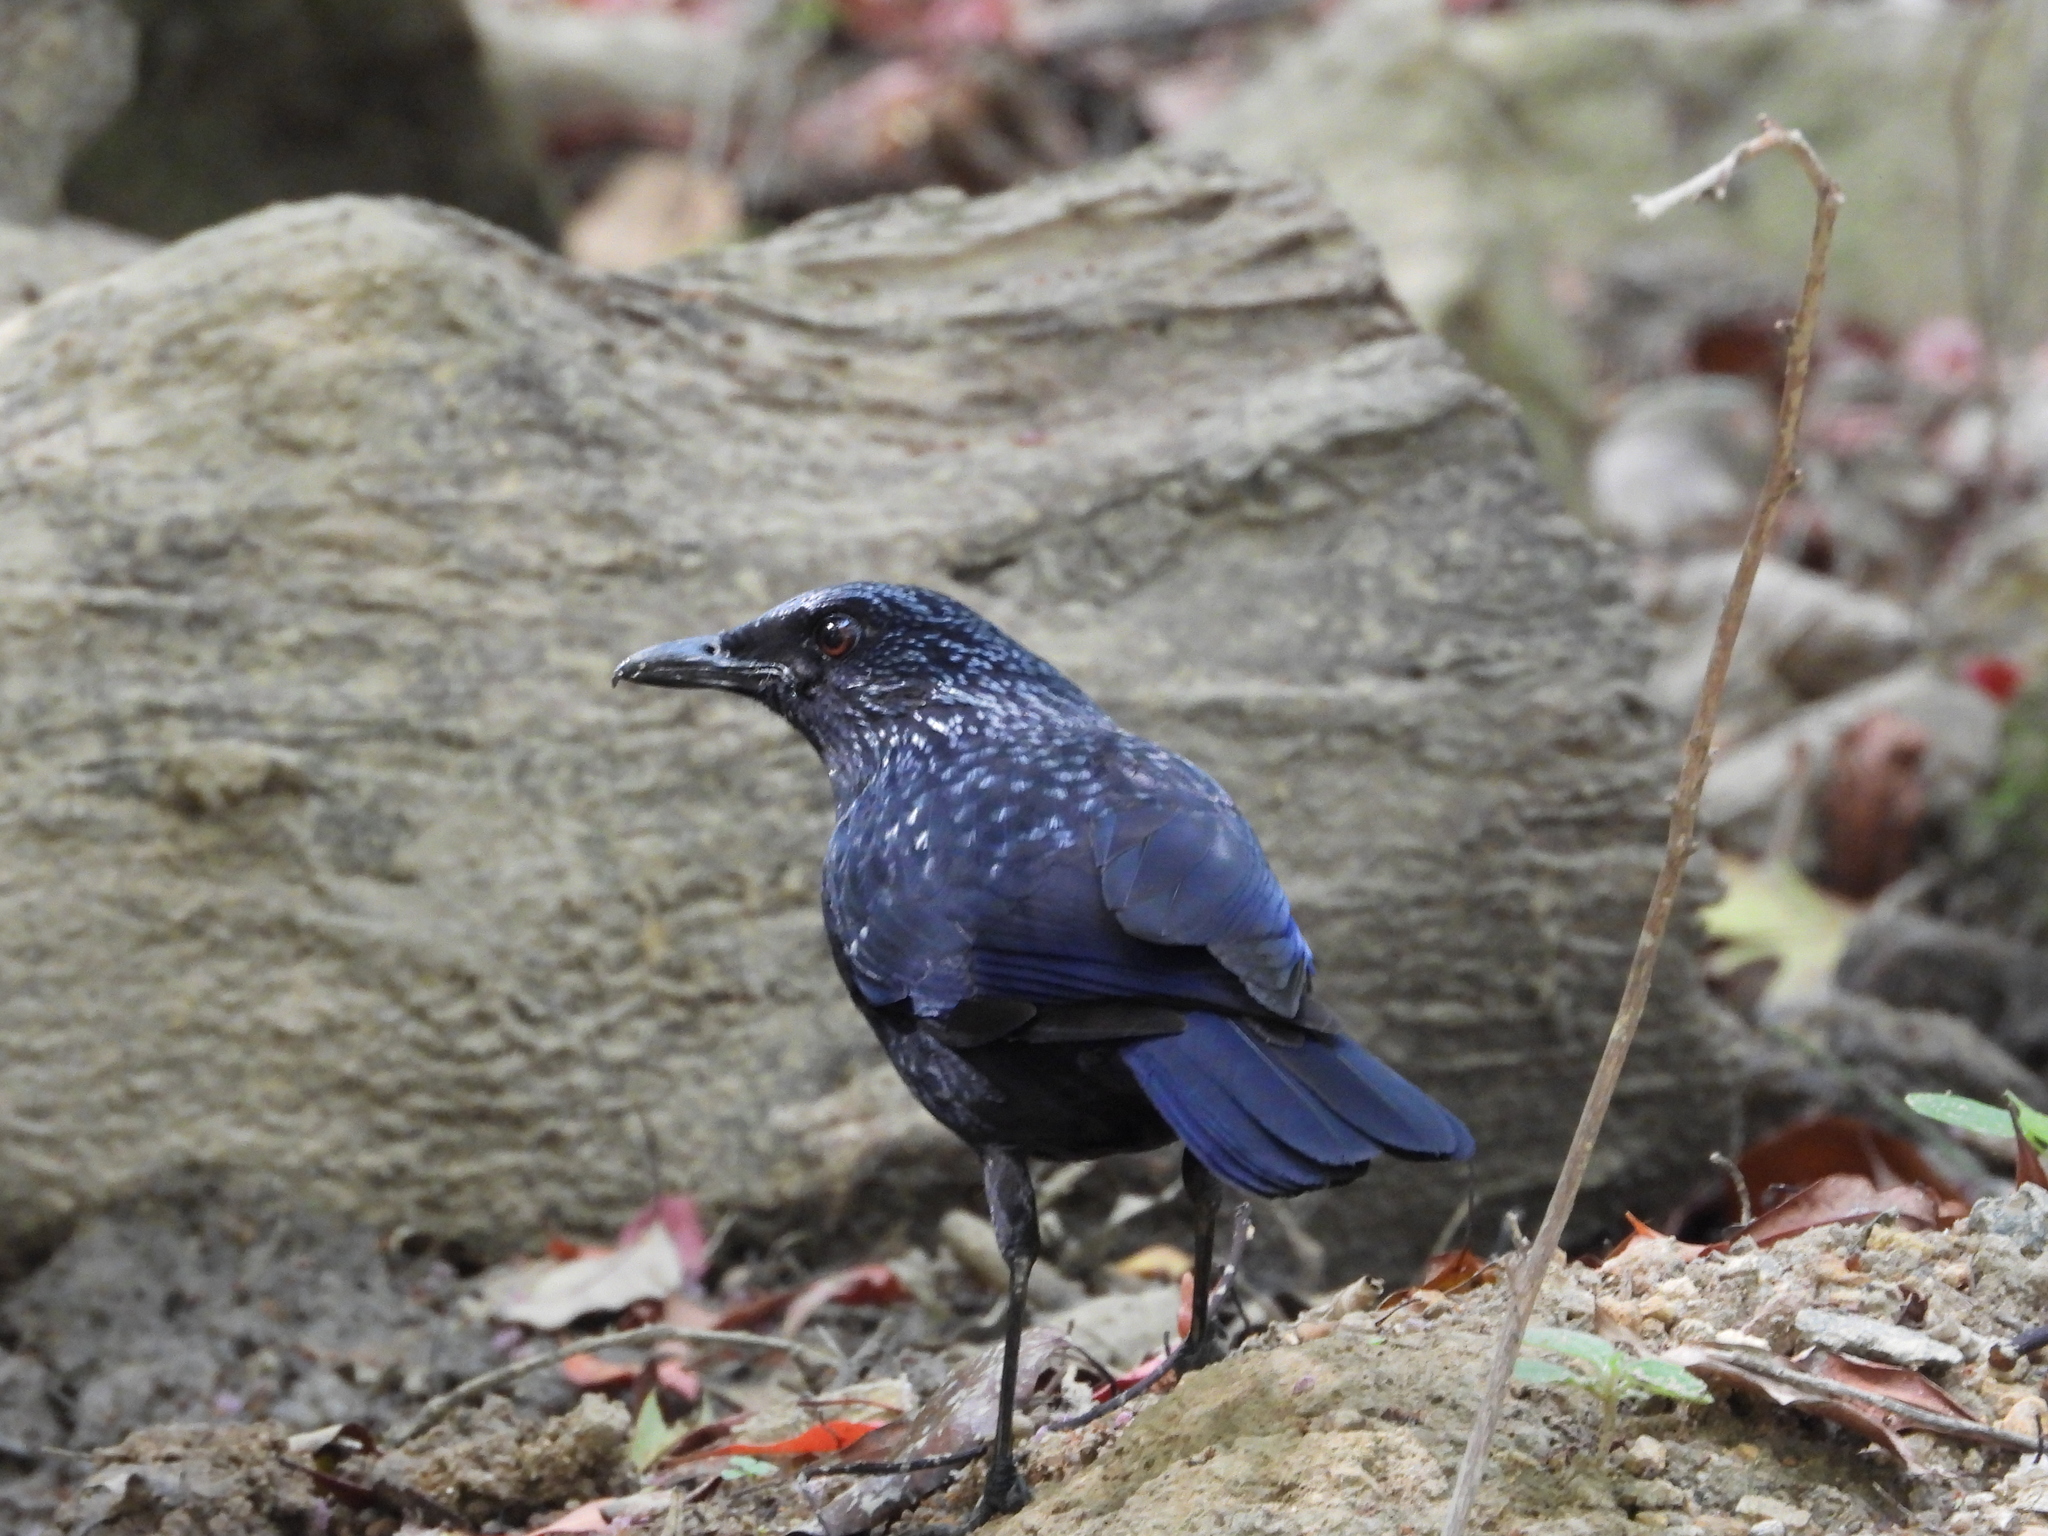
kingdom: Animalia
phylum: Chordata
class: Aves
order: Passeriformes
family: Muscicapidae
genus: Myophonus
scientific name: Myophonus caeruleus
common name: Blue whistling-thrush
